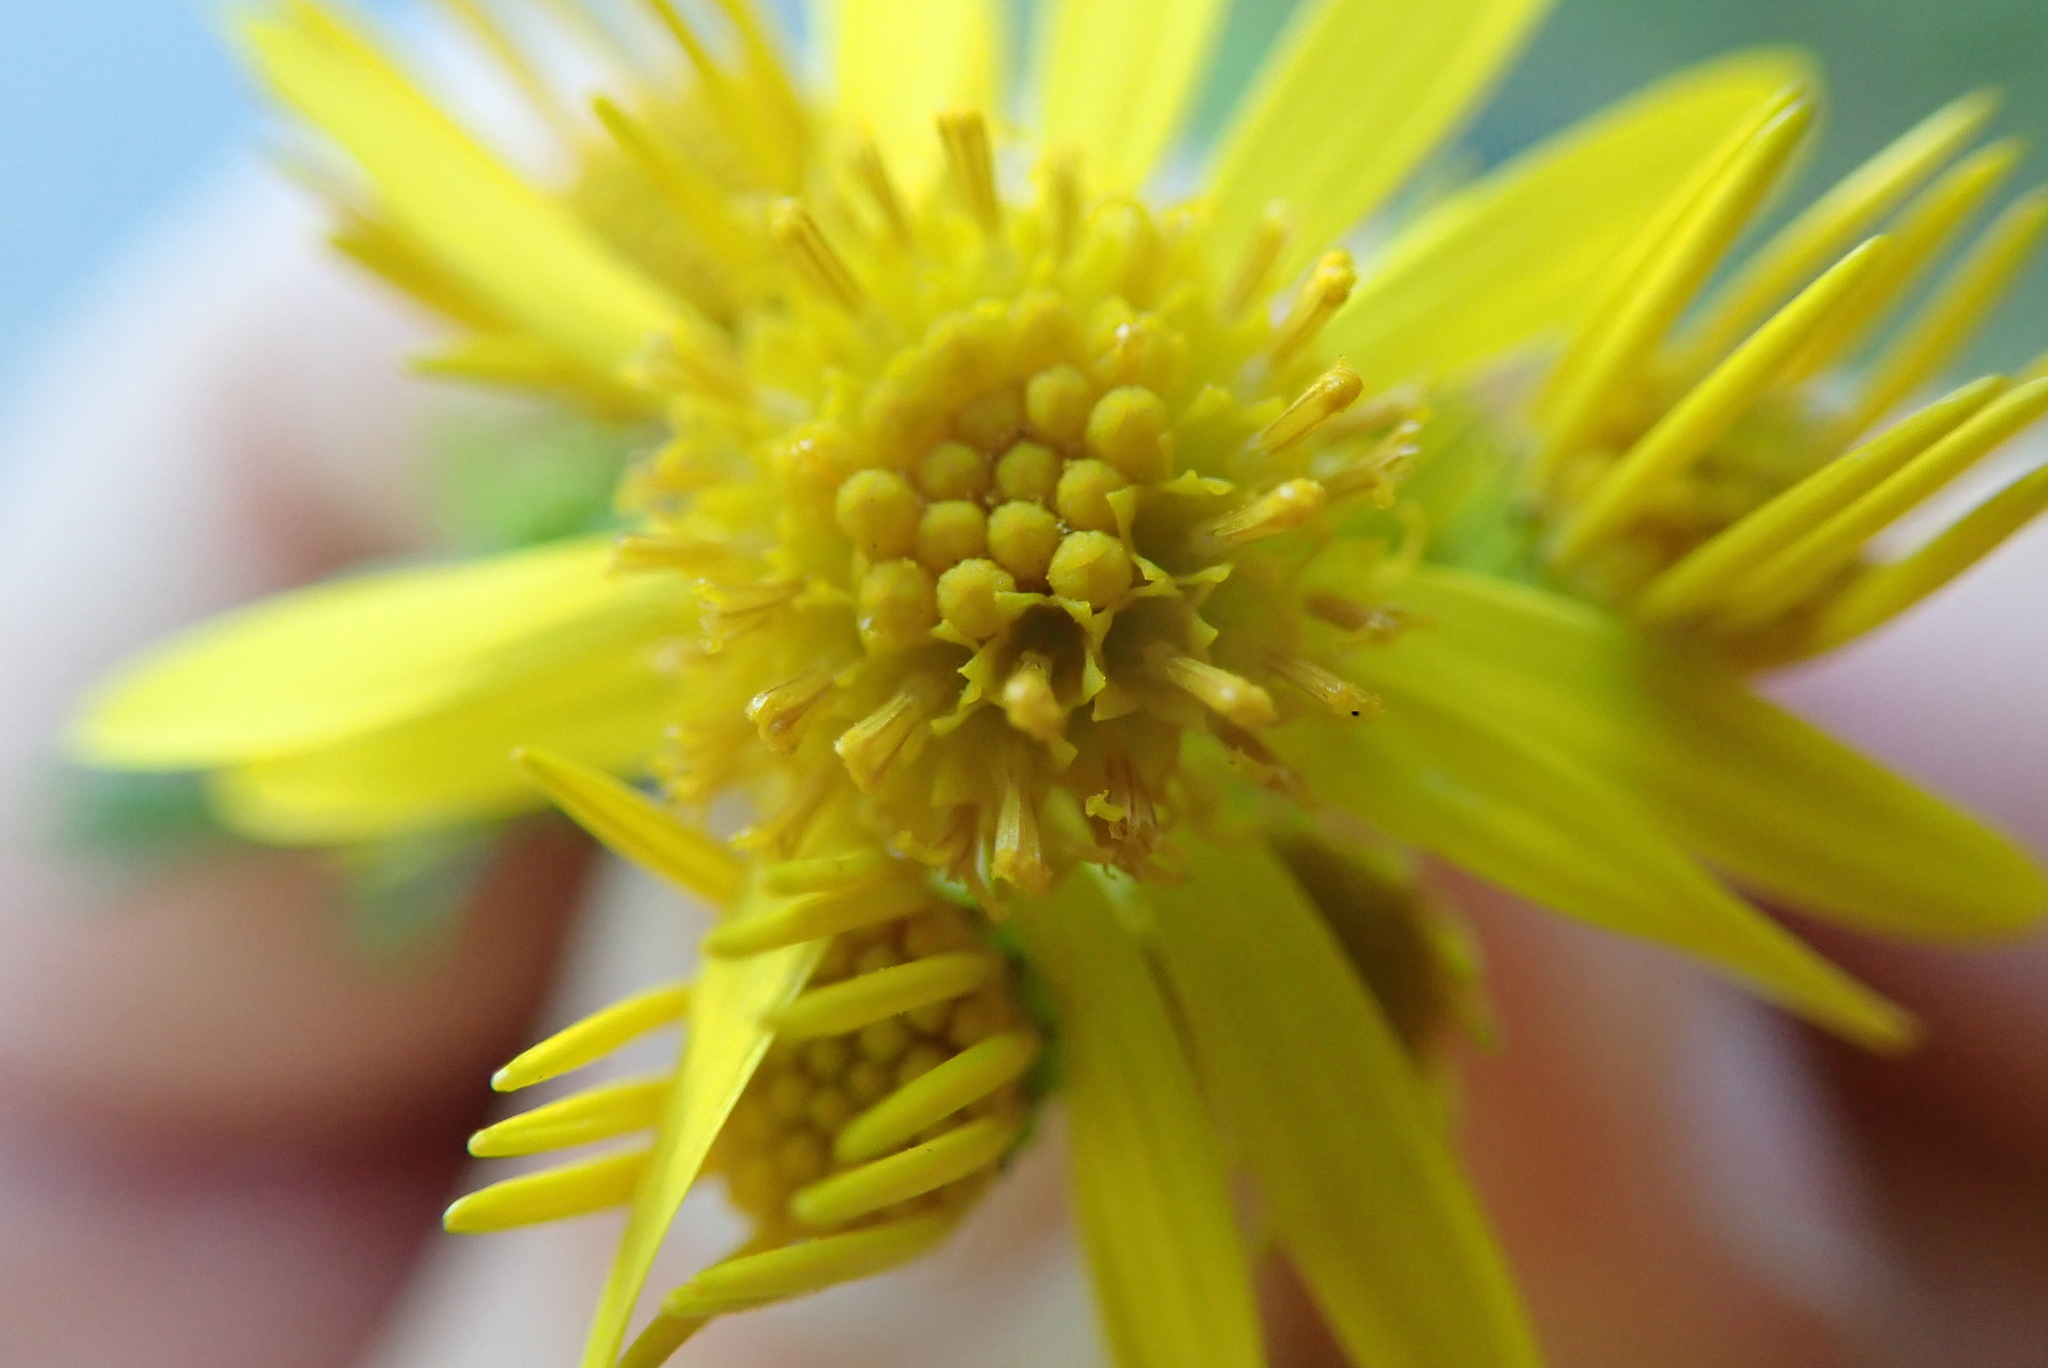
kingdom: Plantae
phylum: Tracheophyta
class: Magnoliopsida
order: Asterales
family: Asteraceae
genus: Jacobaea
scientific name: Jacobaea vulgaris
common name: Stinking willie
